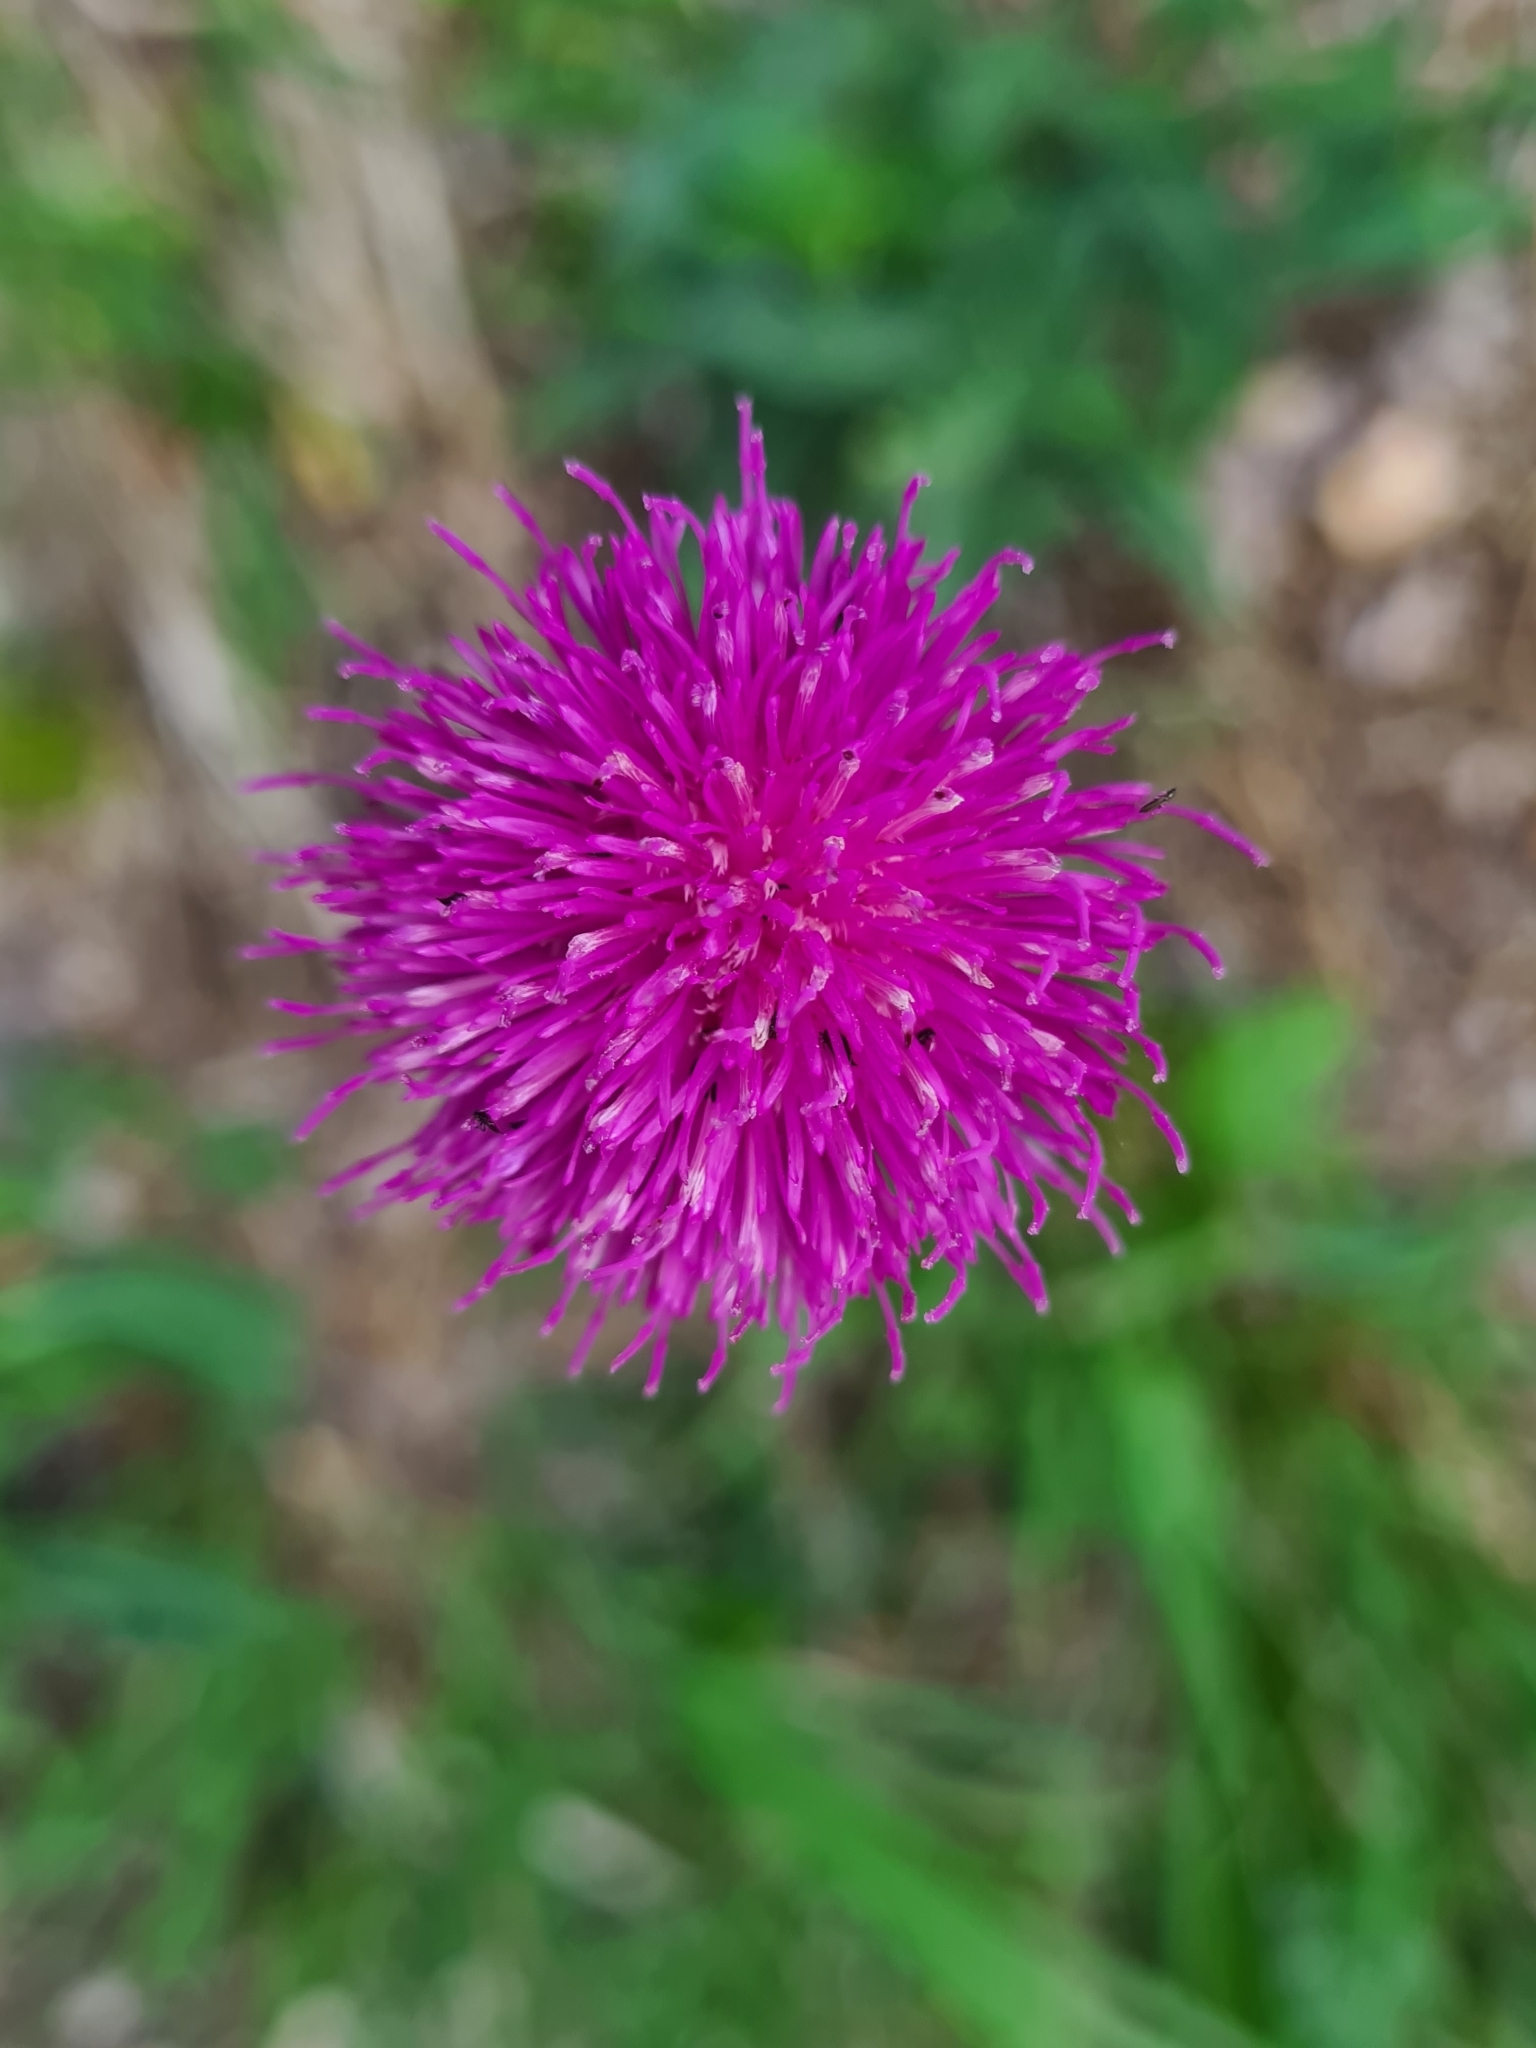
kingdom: Plantae
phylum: Tracheophyta
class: Magnoliopsida
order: Asterales
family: Asteraceae
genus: Carduus
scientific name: Carduus defloratus
